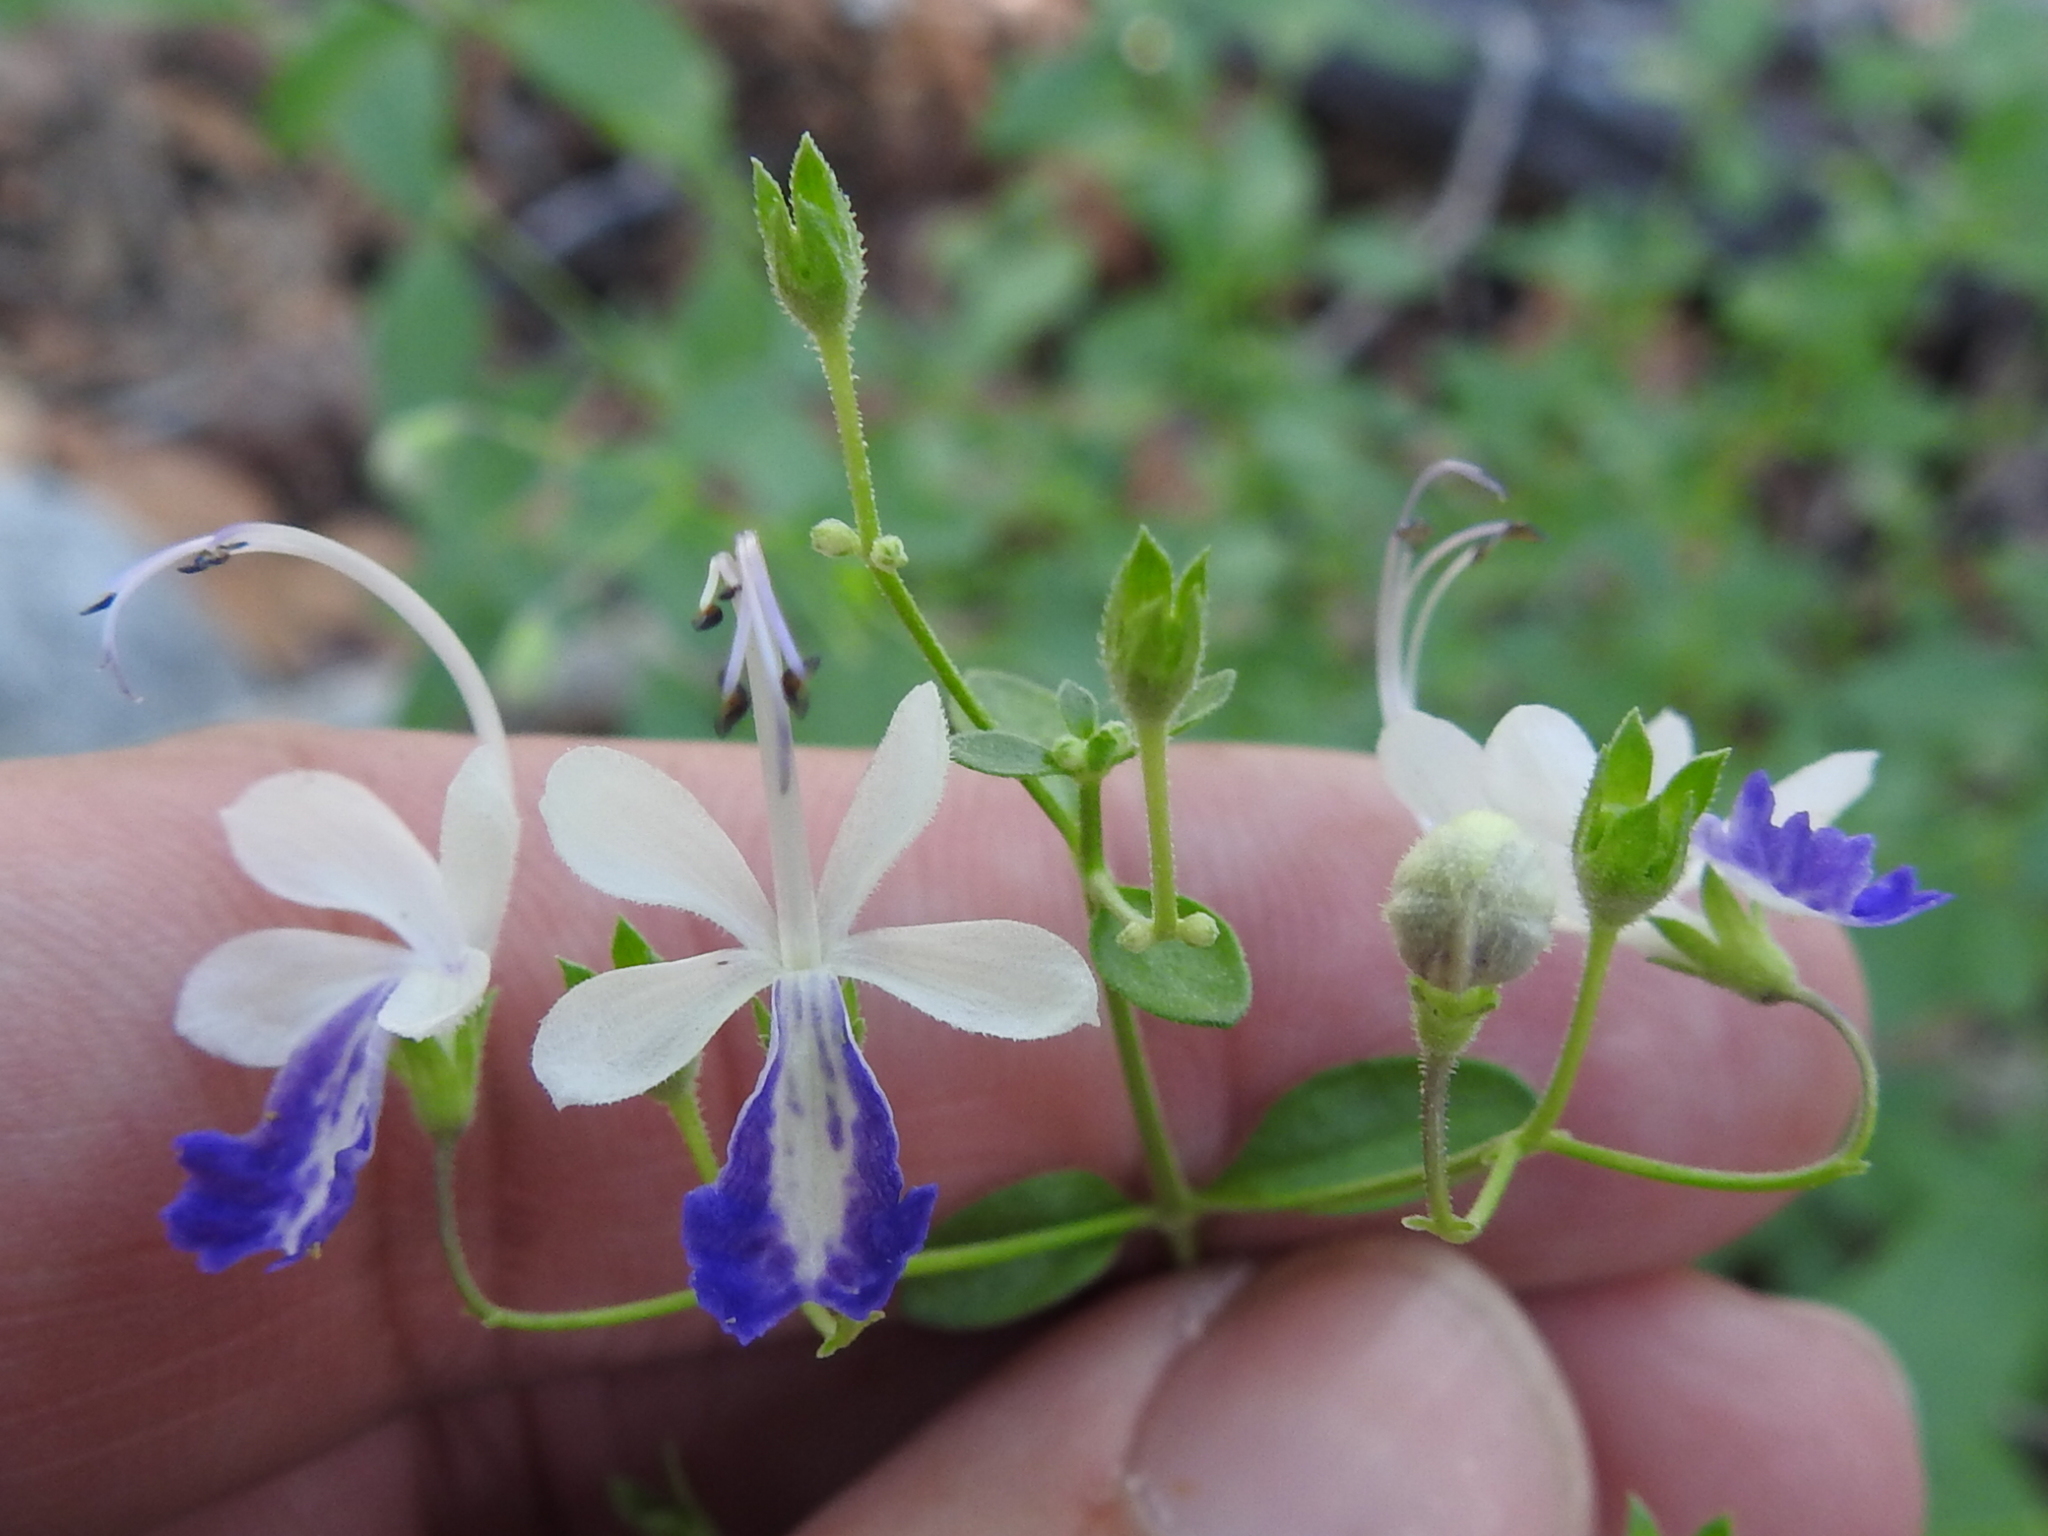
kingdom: Plantae
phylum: Tracheophyta
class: Magnoliopsida
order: Lamiales
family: Lamiaceae
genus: Trichostema
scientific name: Trichostema arizonicum
